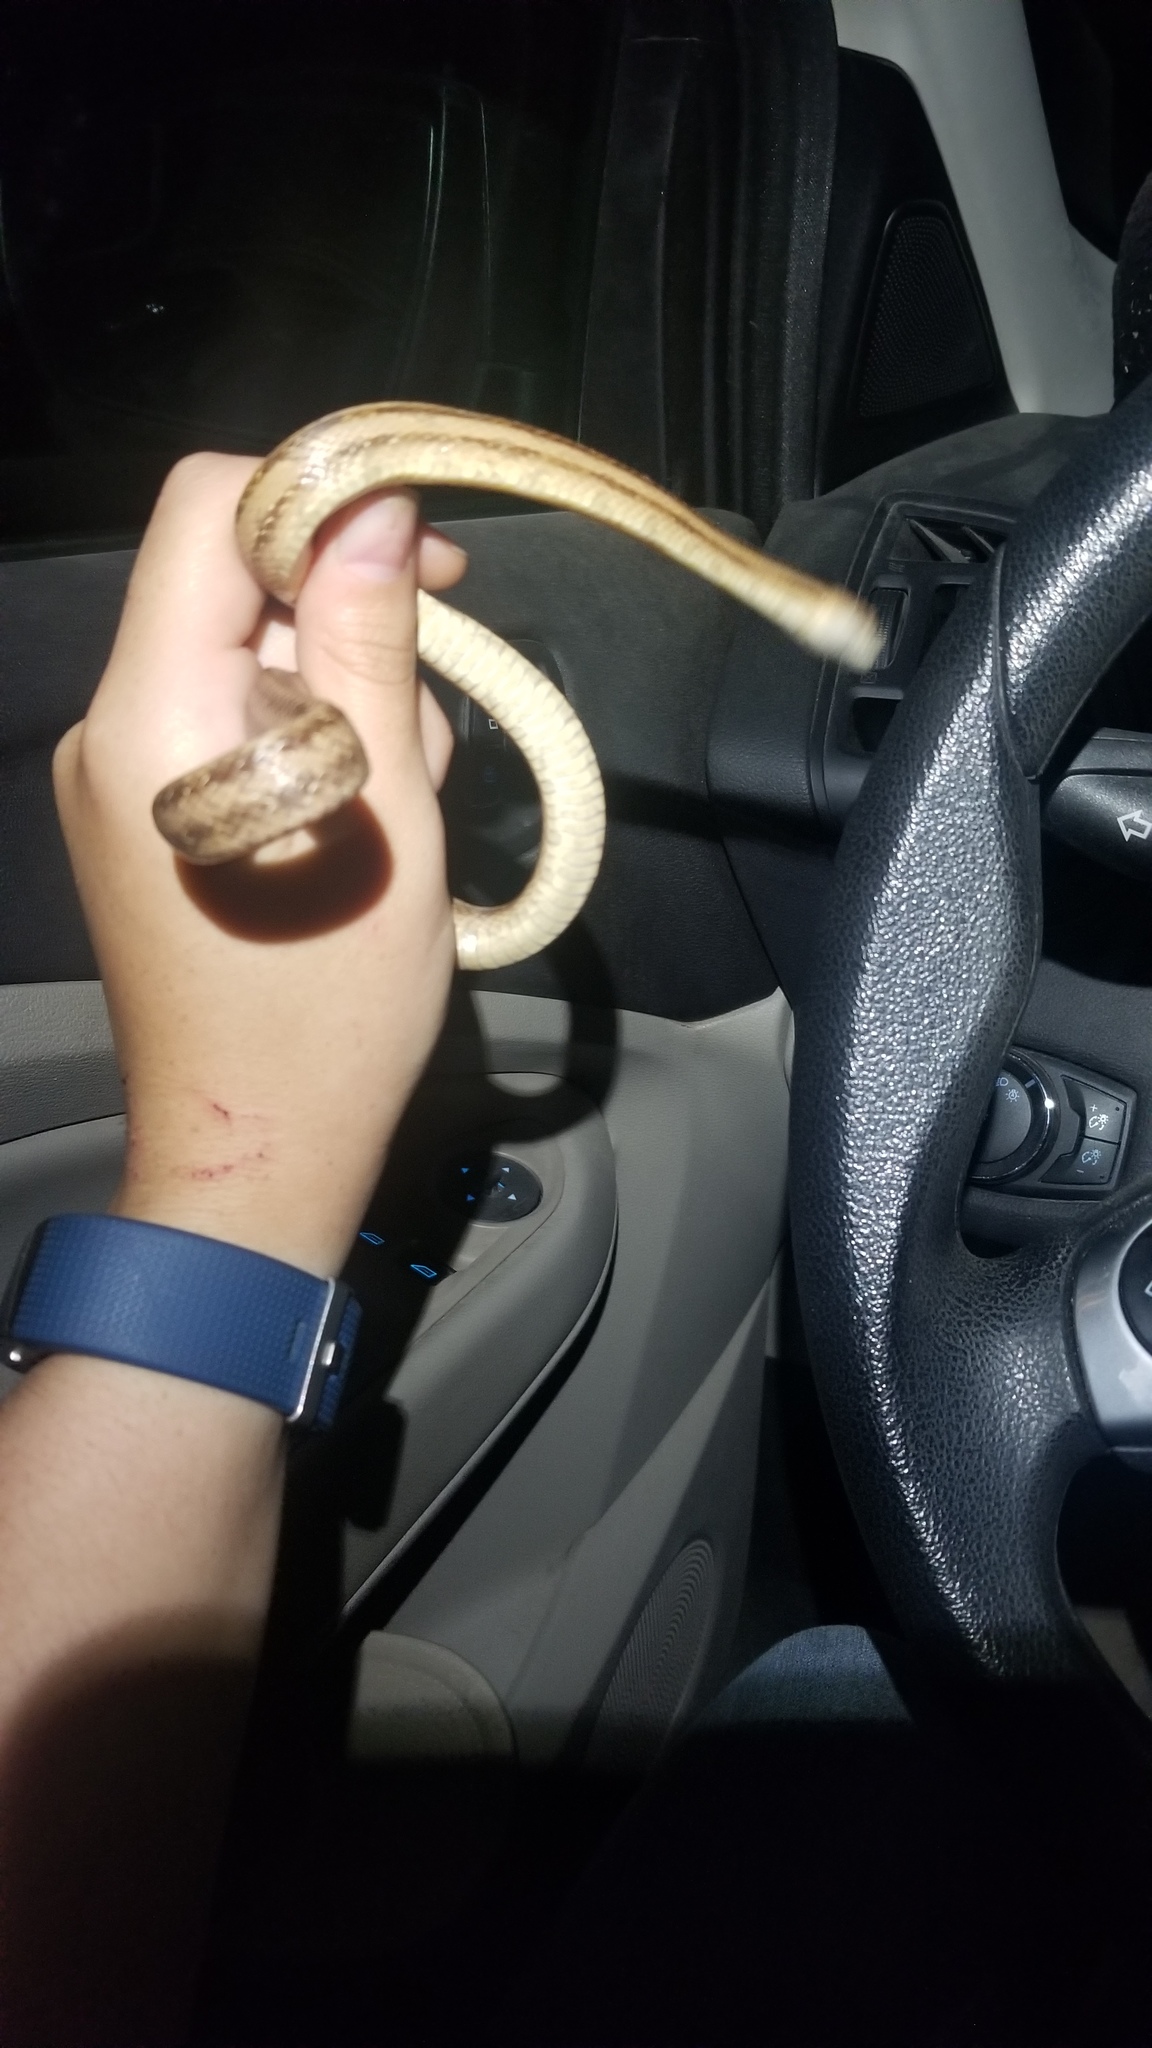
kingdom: Animalia
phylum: Chordata
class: Squamata
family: Colubridae
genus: Pantherophis
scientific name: Pantherophis alleghaniensis
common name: Eastern rat snake
